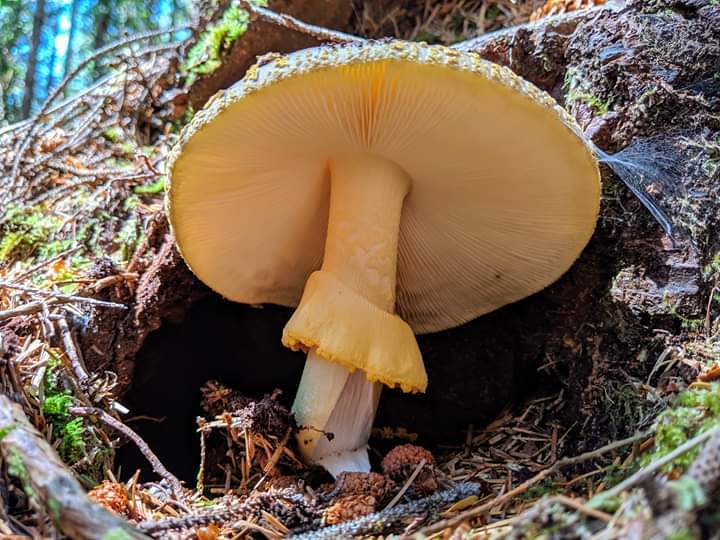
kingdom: Fungi
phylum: Basidiomycota
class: Agaricomycetes
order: Agaricales
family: Amanitaceae
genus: Amanita
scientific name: Amanita augusta
